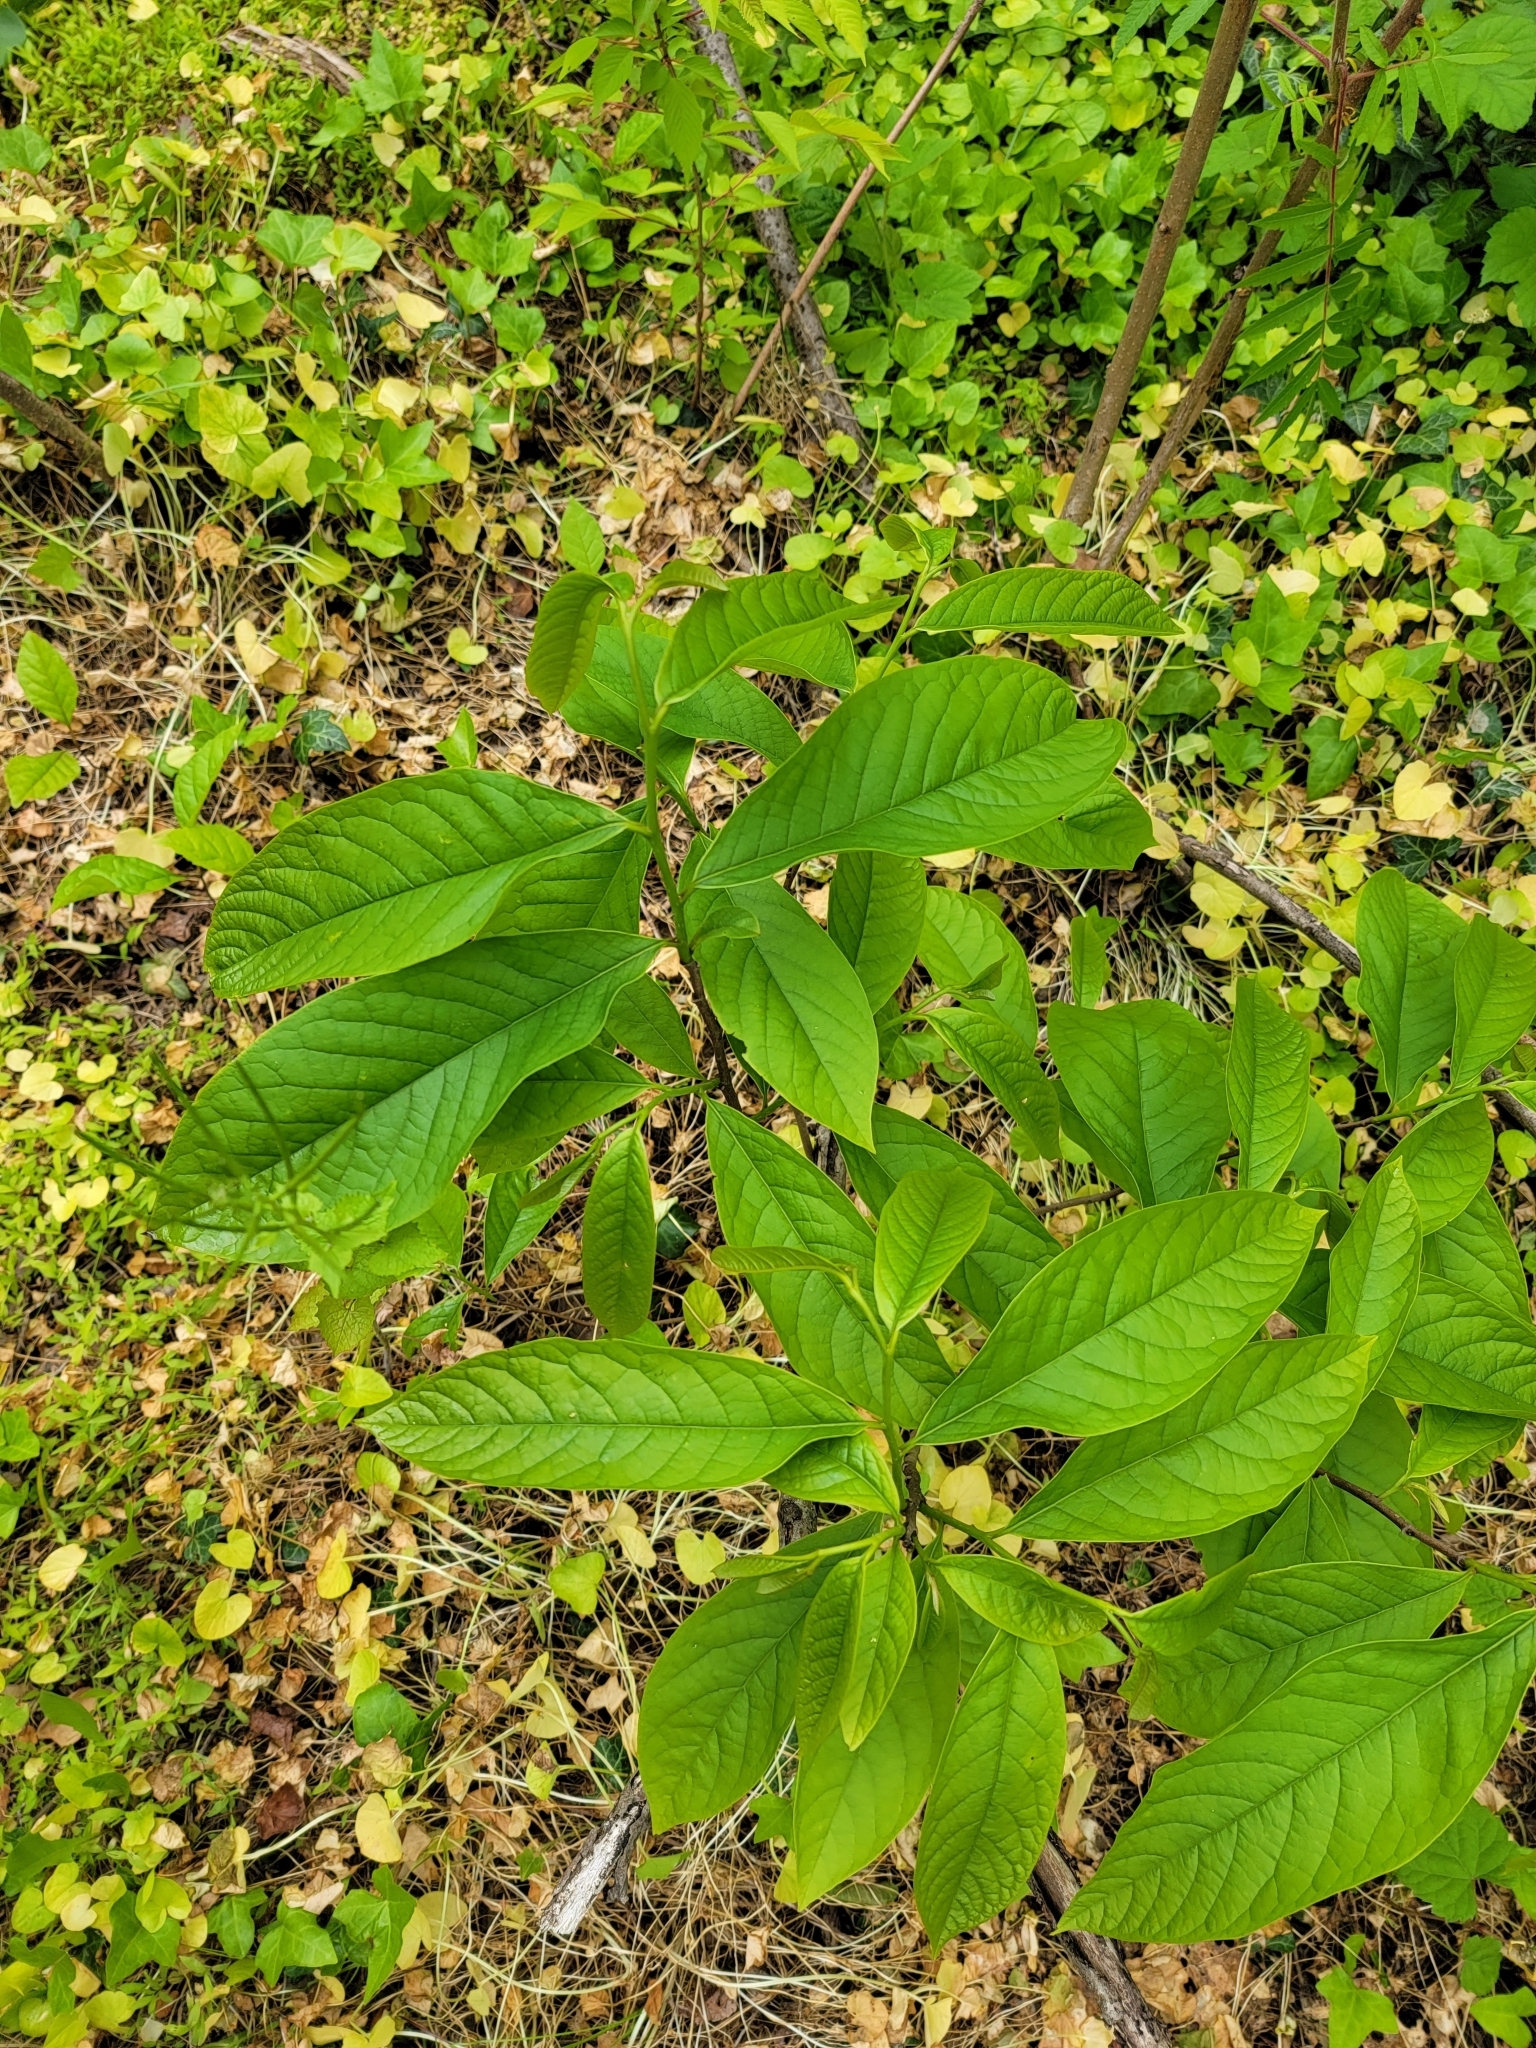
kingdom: Plantae
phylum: Tracheophyta
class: Magnoliopsida
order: Magnoliales
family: Annonaceae
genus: Asimina
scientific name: Asimina triloba
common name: Dog-banana
